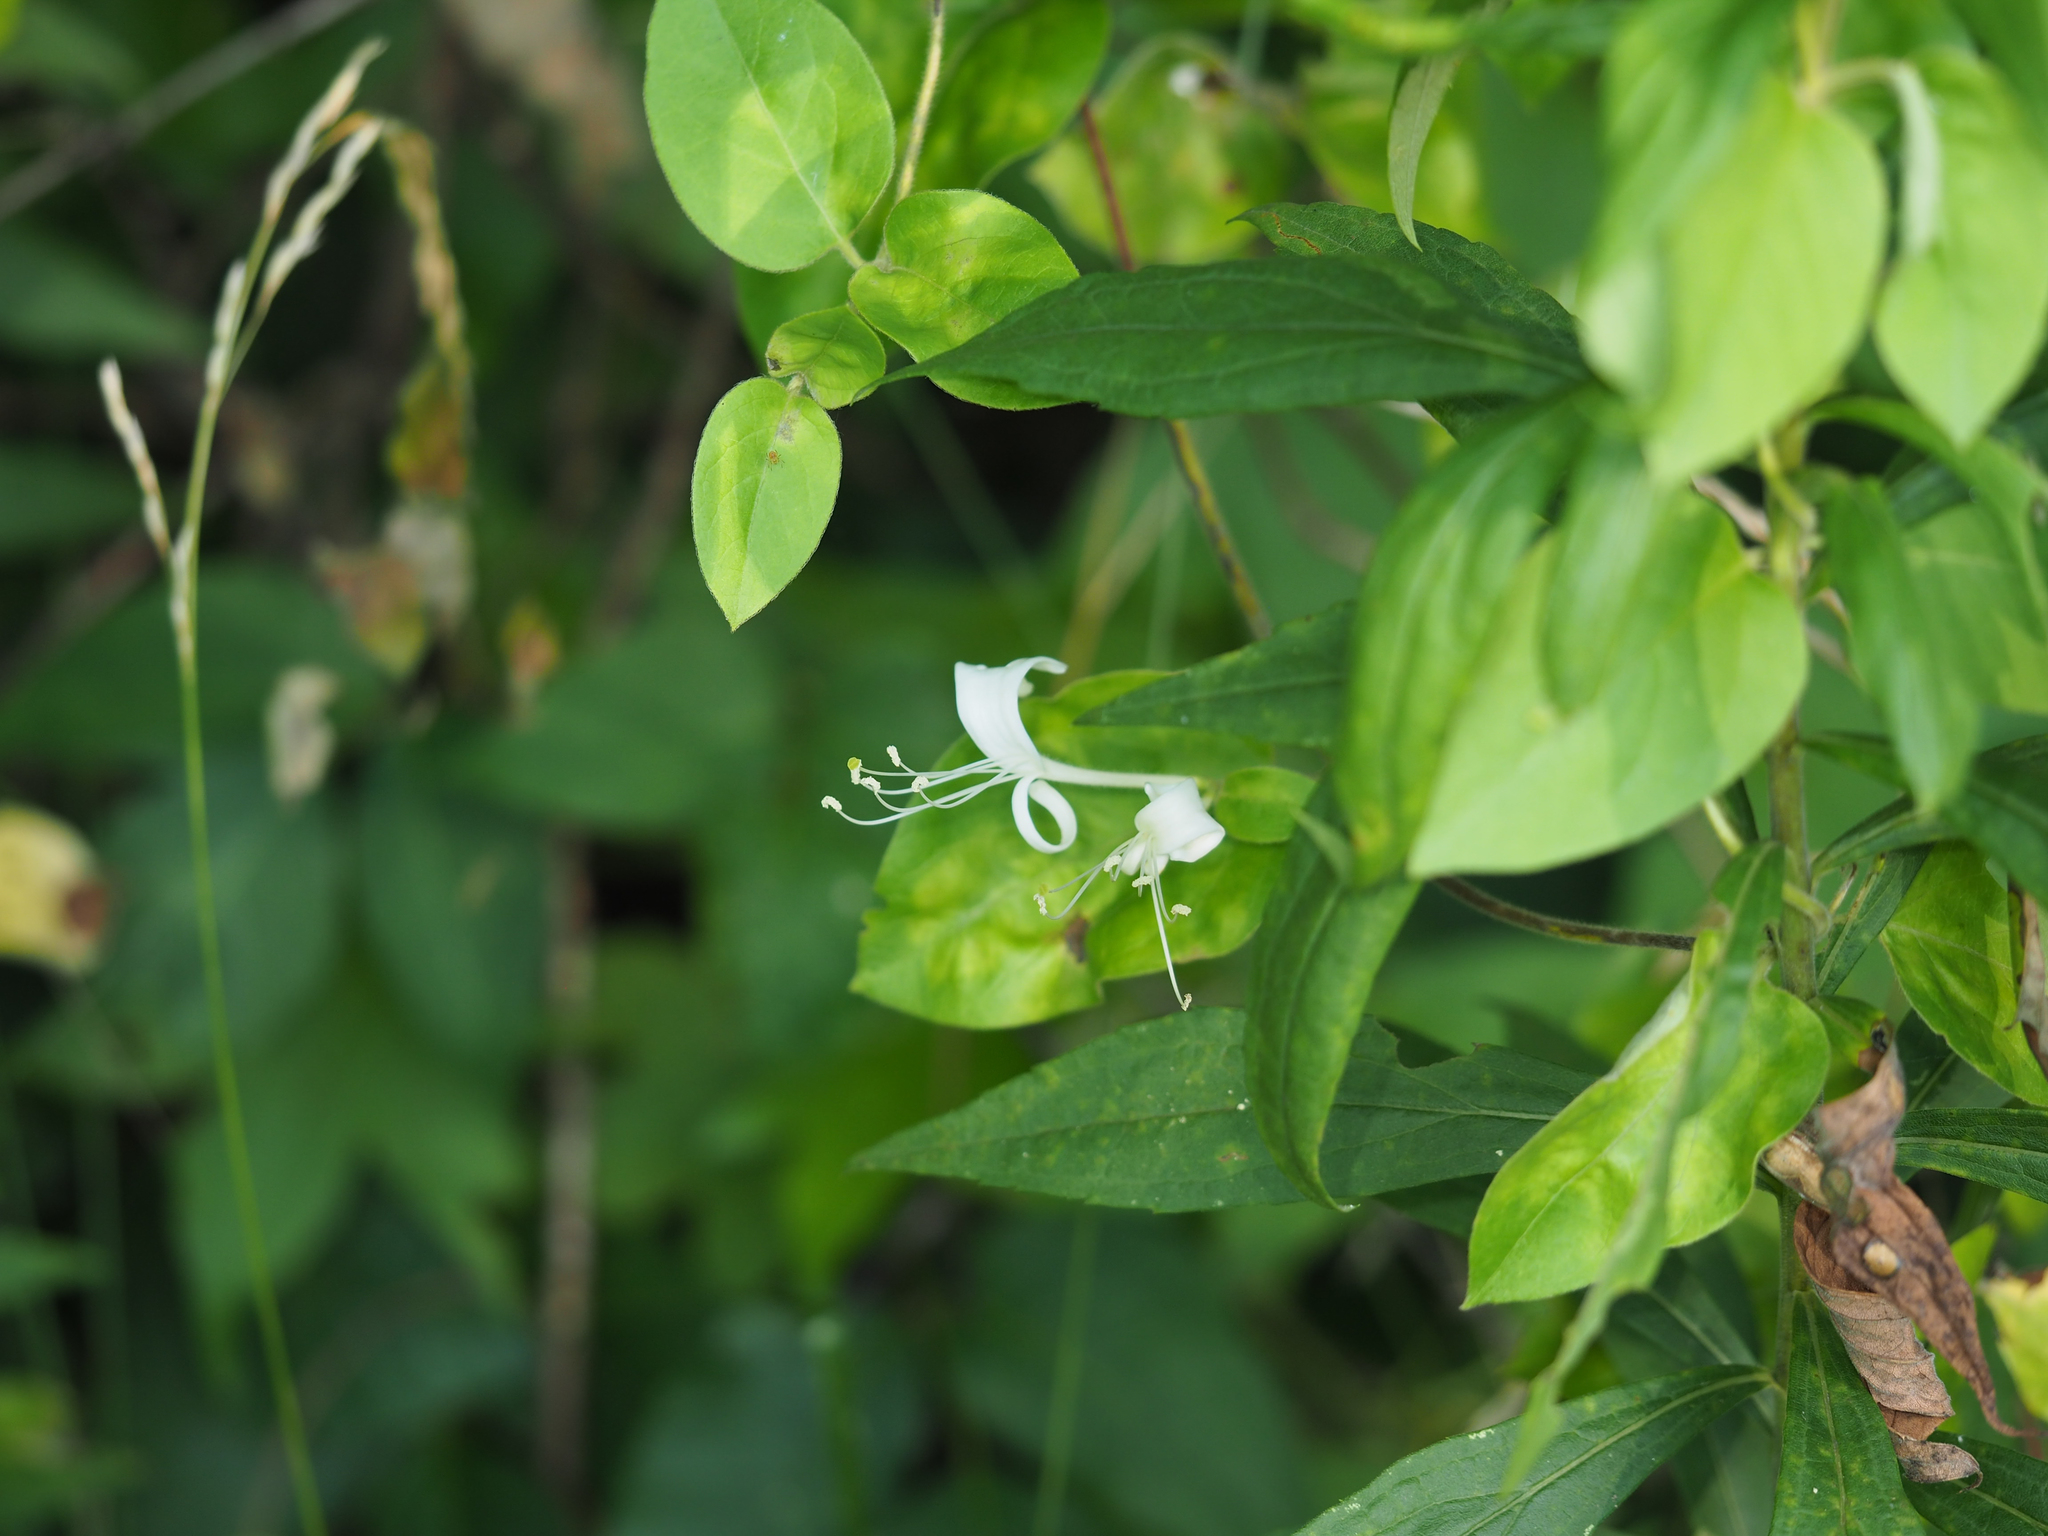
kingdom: Plantae
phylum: Tracheophyta
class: Magnoliopsida
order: Dipsacales
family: Caprifoliaceae
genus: Lonicera
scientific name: Lonicera japonica
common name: Japanese honeysuckle
